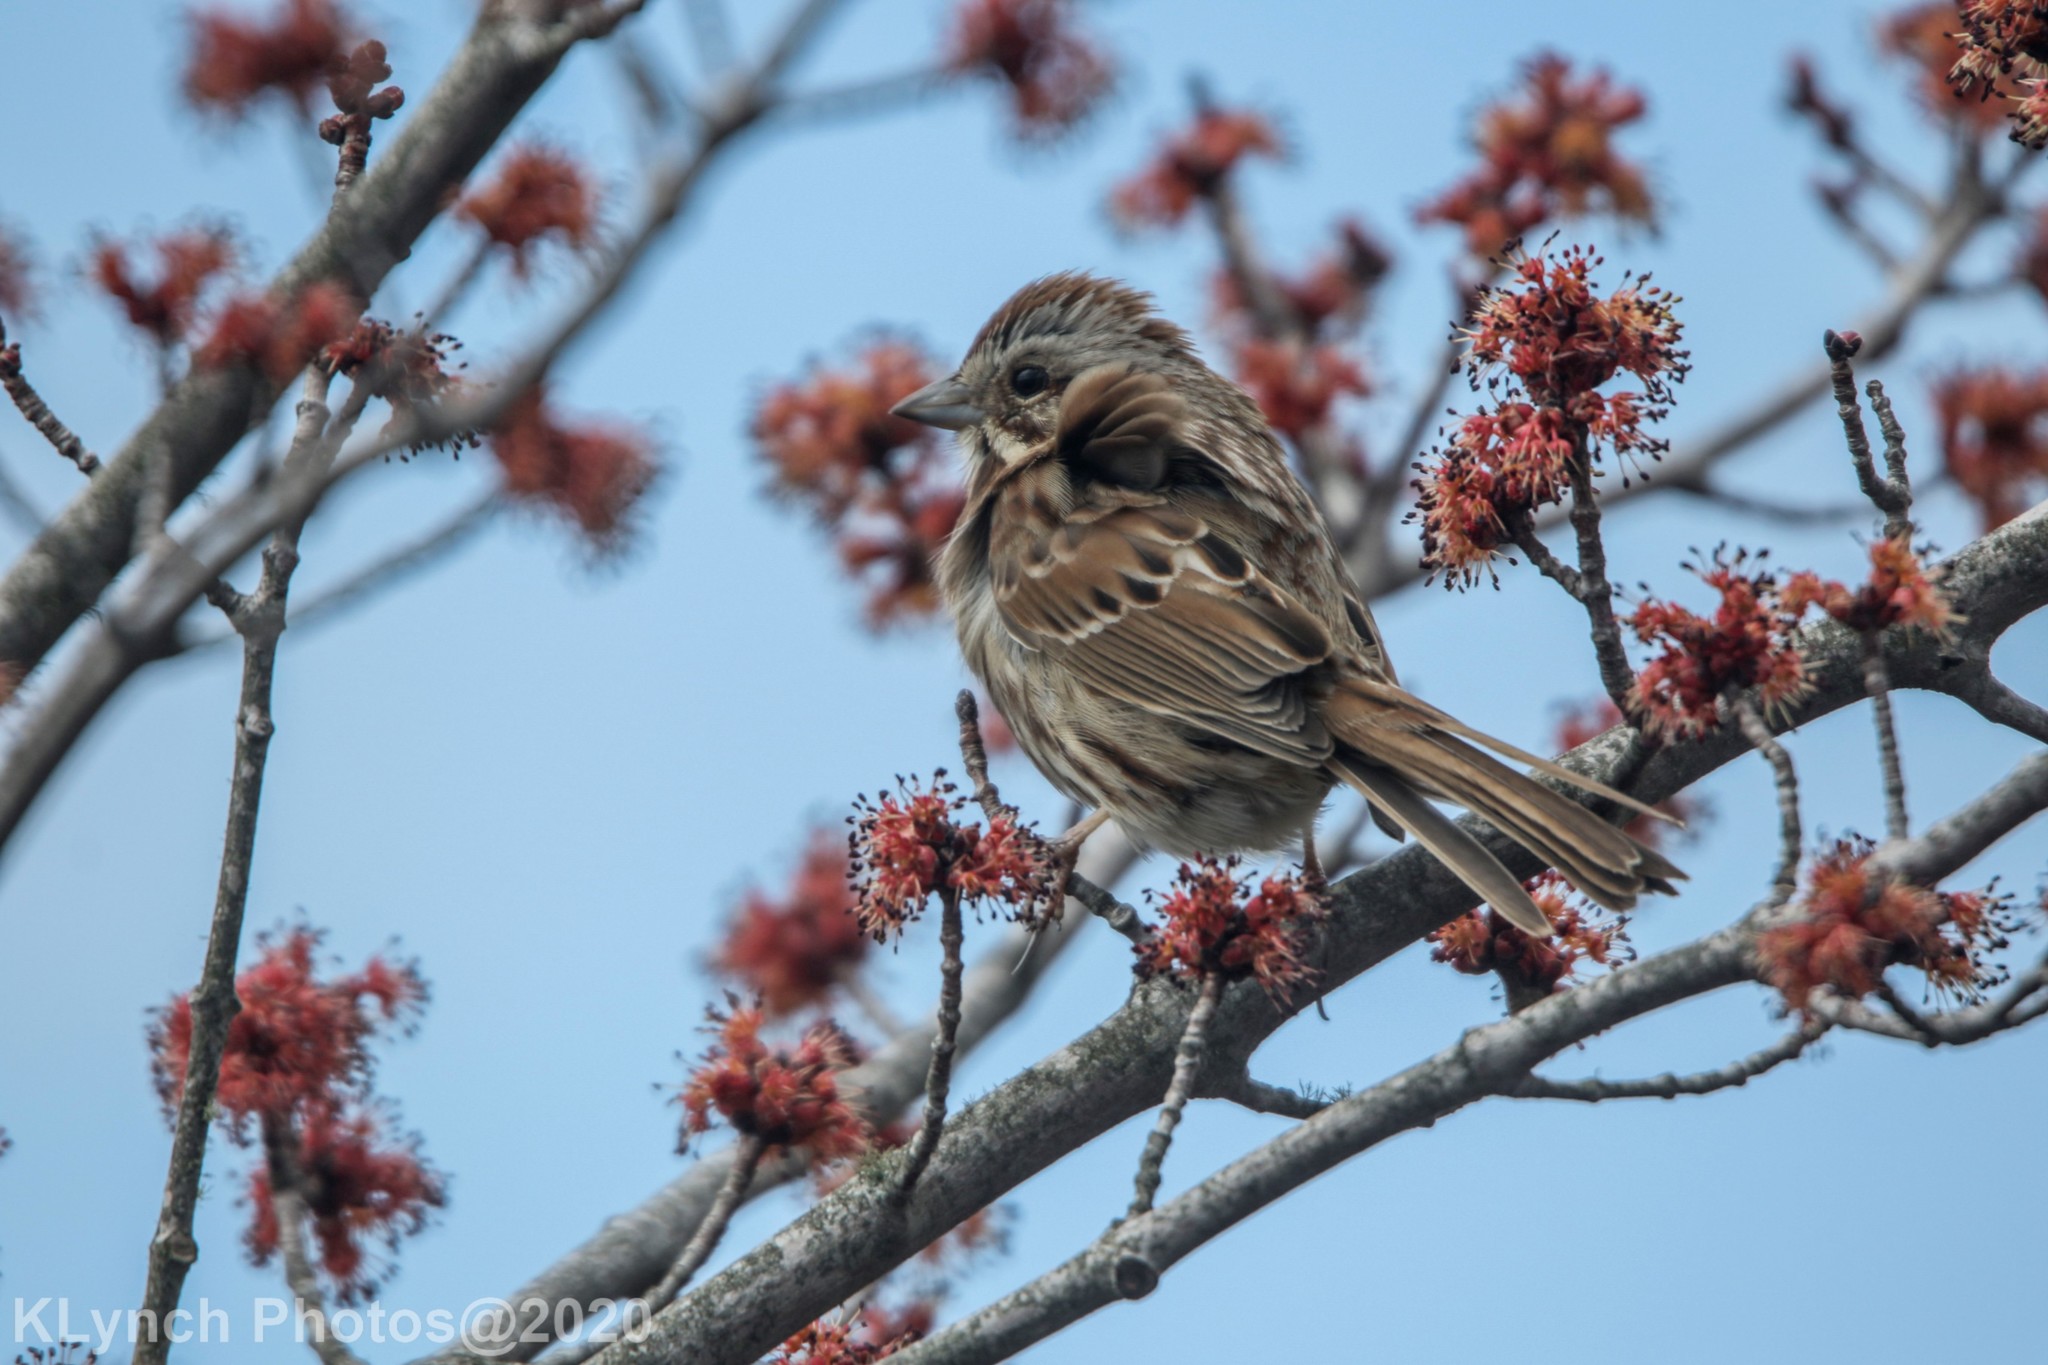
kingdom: Animalia
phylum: Chordata
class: Aves
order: Passeriformes
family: Passerellidae
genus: Melospiza
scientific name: Melospiza melodia
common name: Song sparrow
